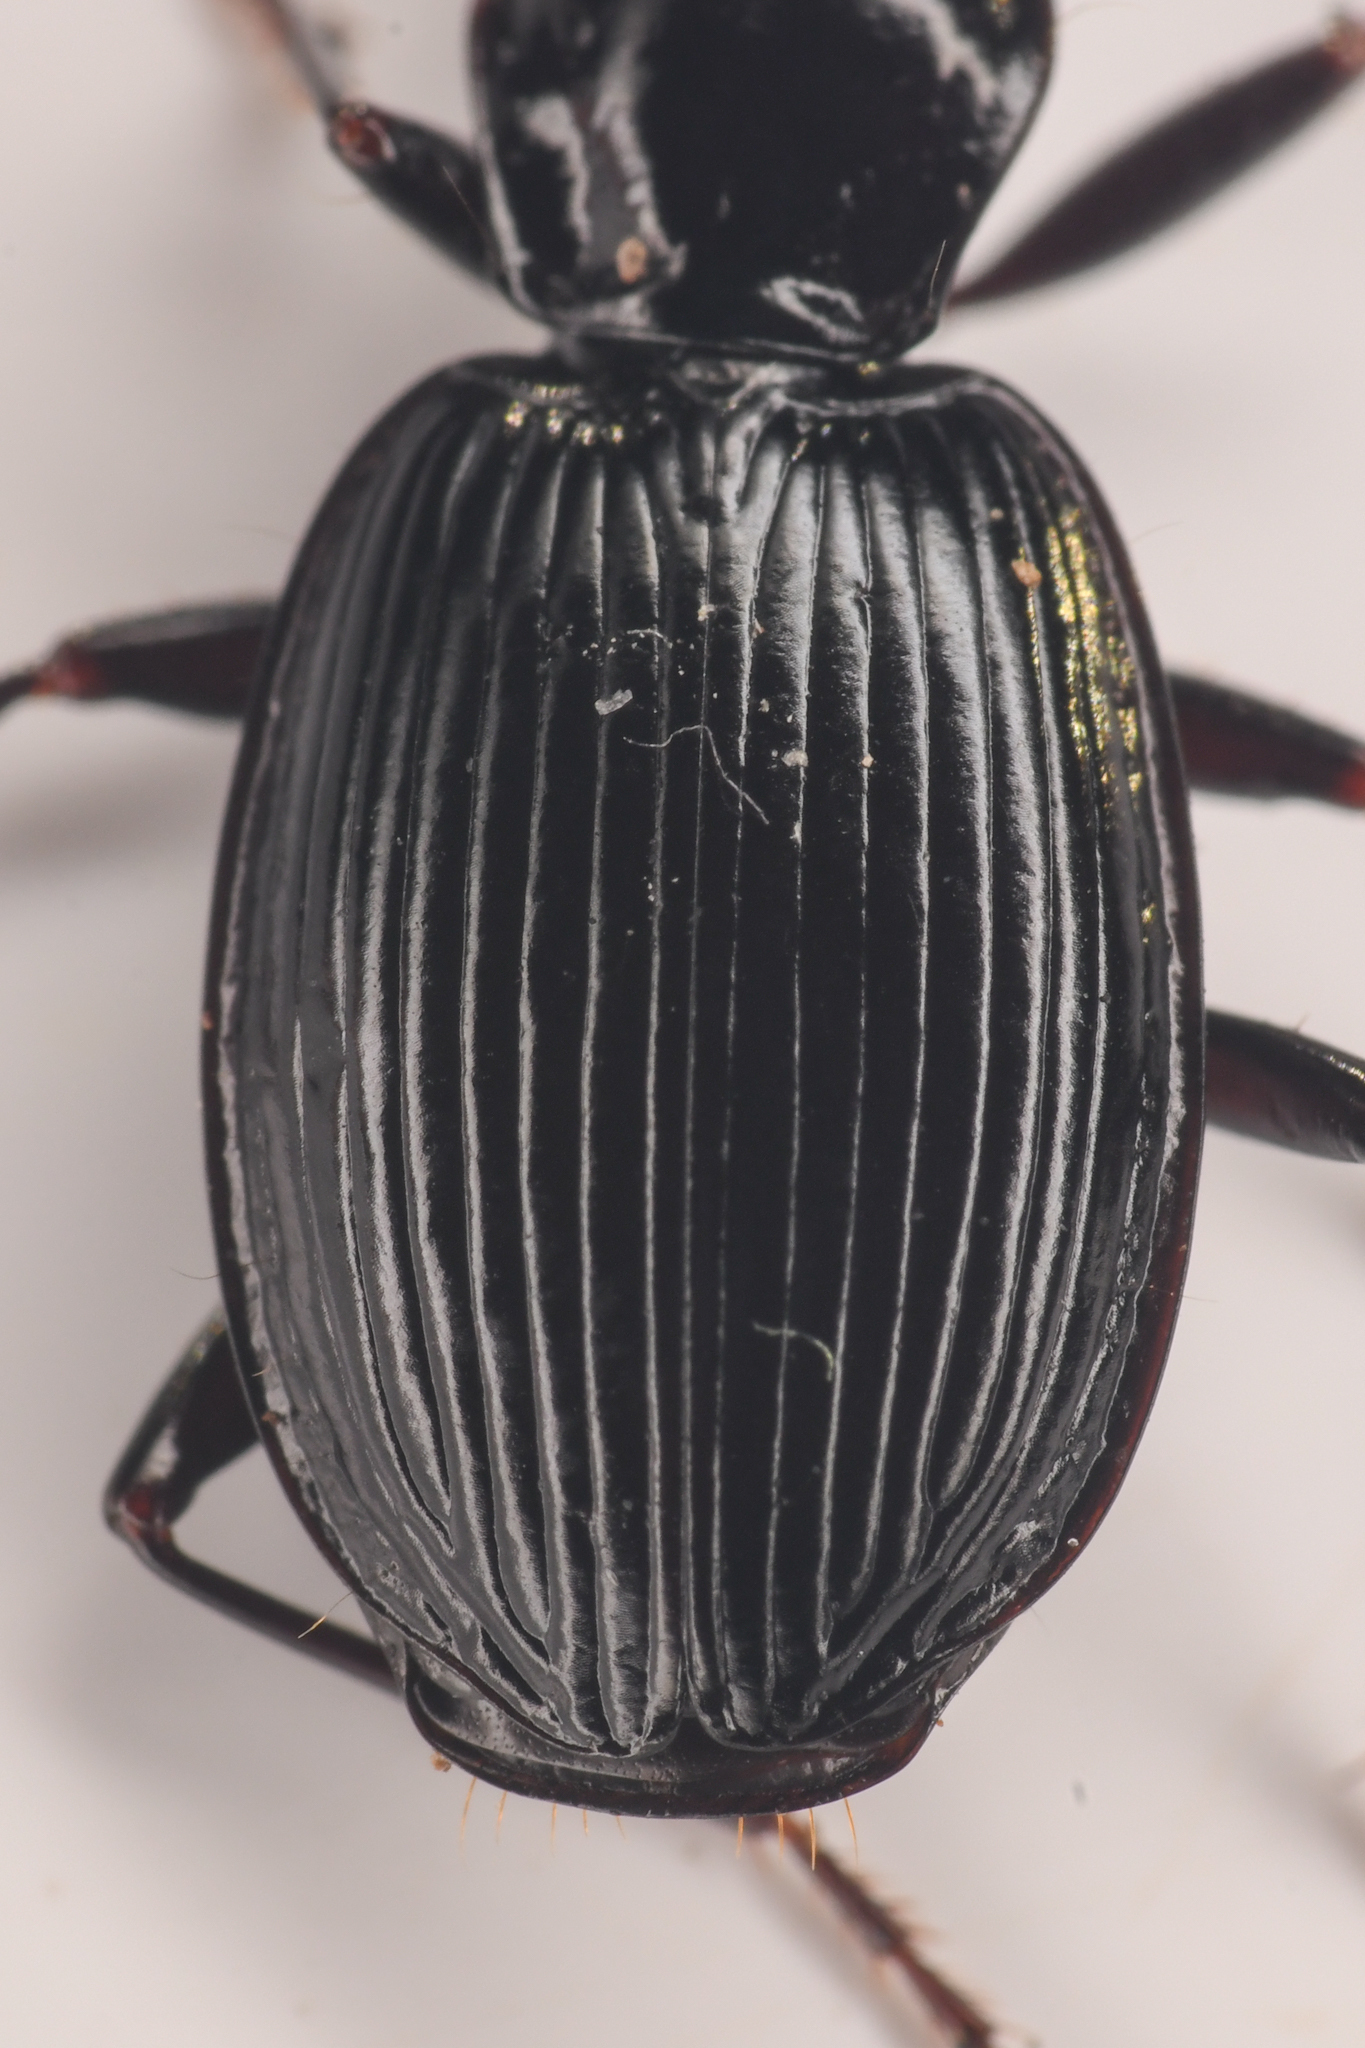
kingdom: Animalia
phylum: Arthropoda
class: Insecta
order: Coleoptera
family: Carabidae
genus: Platynus
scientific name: Platynus ovipennis
